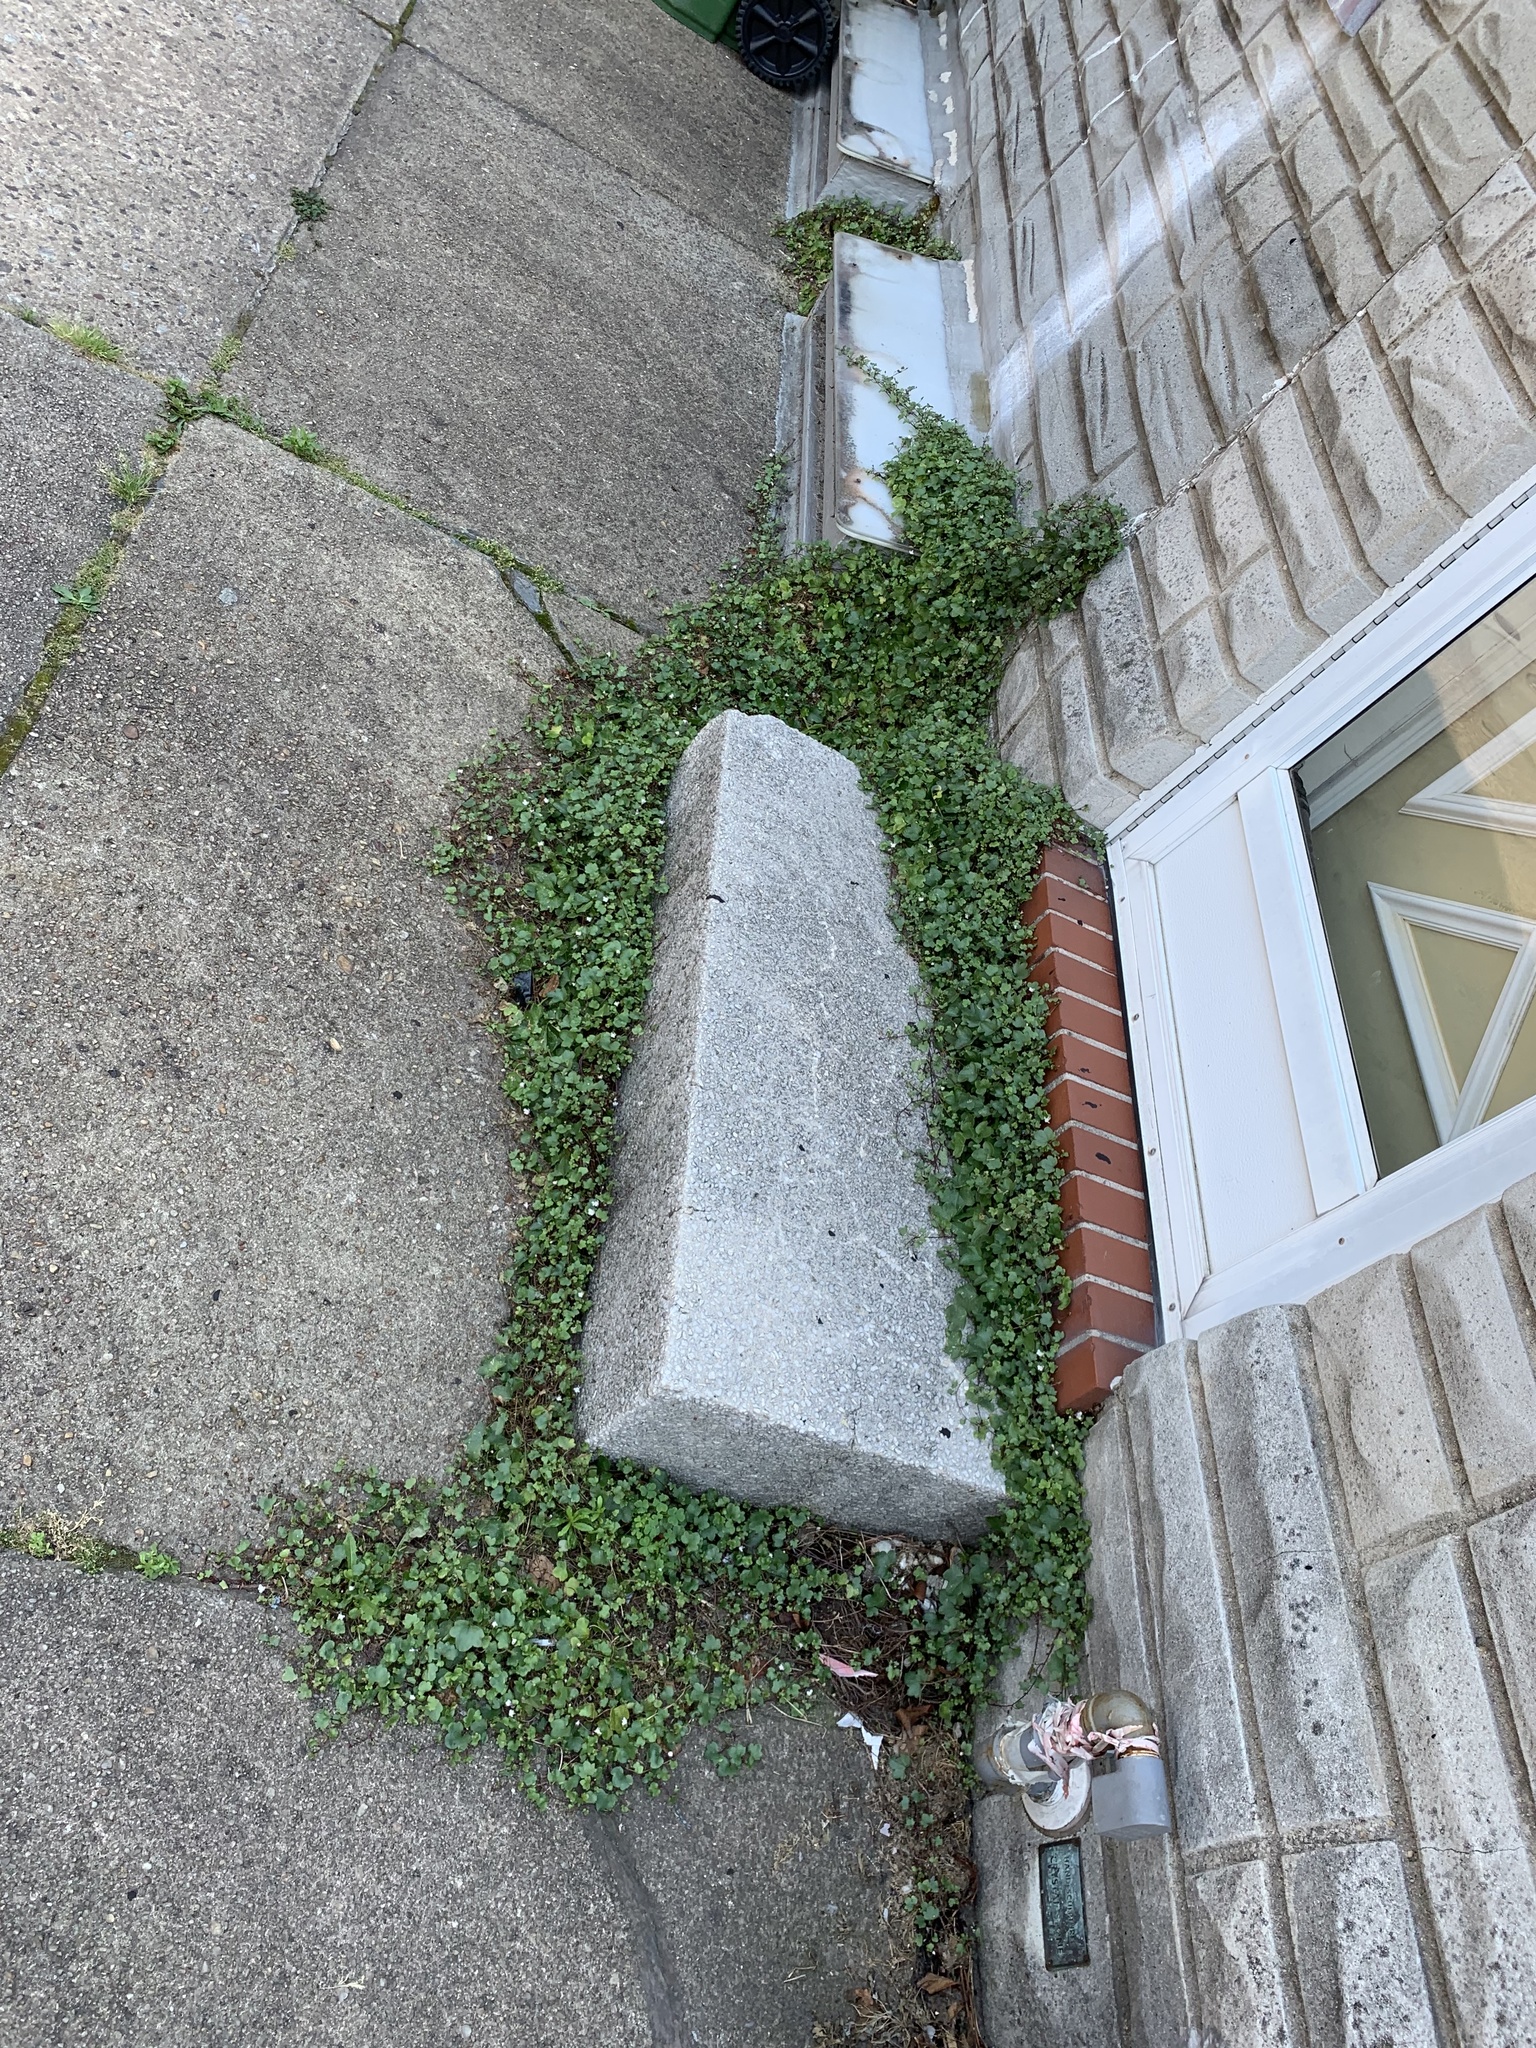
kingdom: Plantae
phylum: Tracheophyta
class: Magnoliopsida
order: Lamiales
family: Plantaginaceae
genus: Cymbalaria
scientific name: Cymbalaria muralis
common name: Ivy-leaved toadflax
